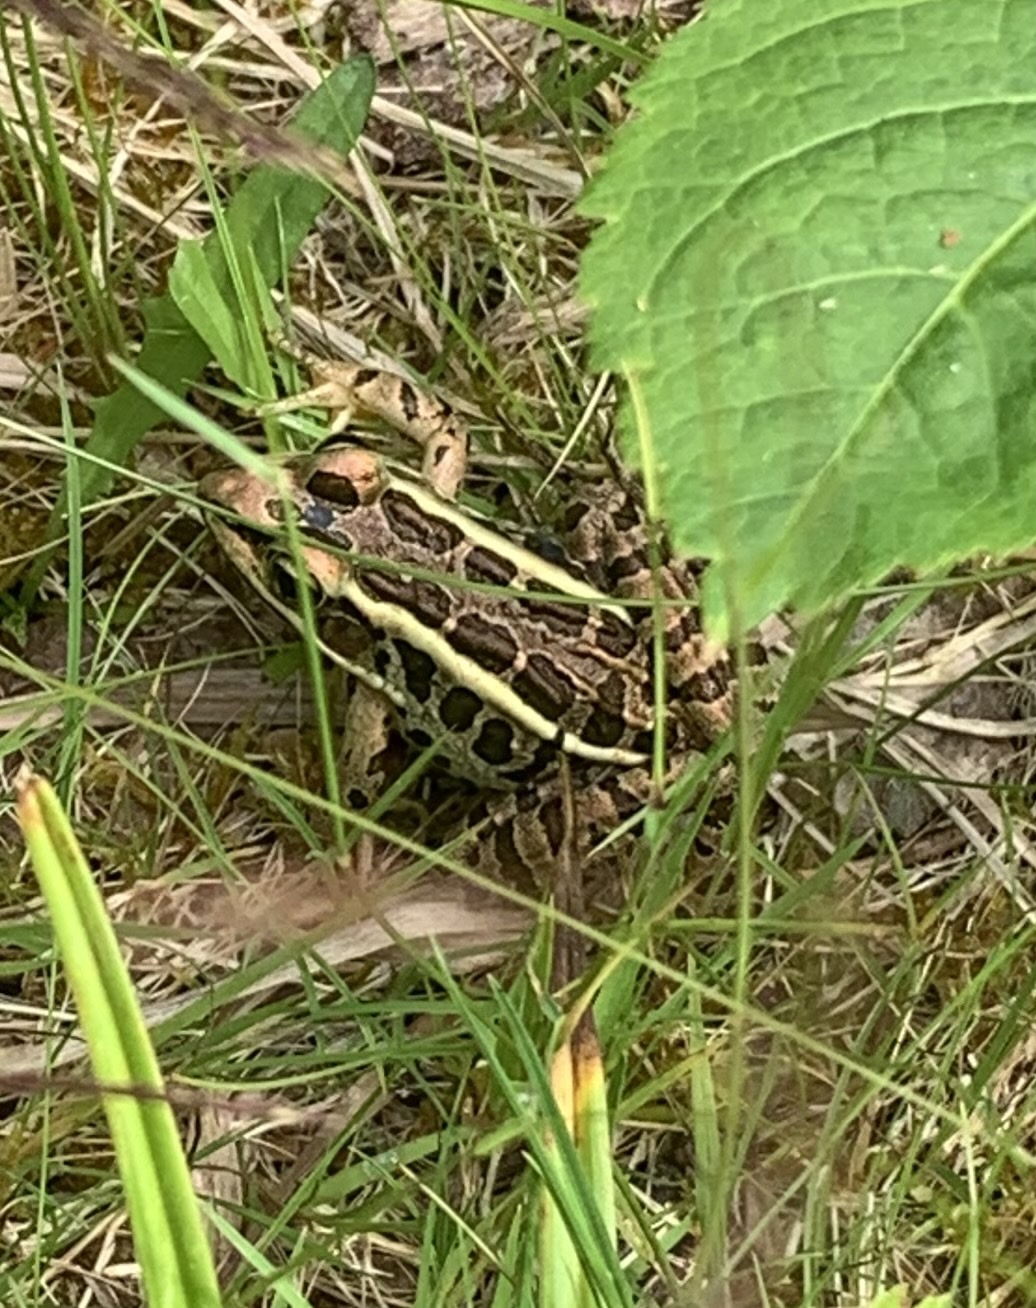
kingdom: Animalia
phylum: Chordata
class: Amphibia
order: Anura
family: Ranidae
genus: Lithobates
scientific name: Lithobates palustris
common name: Pickerel frog
